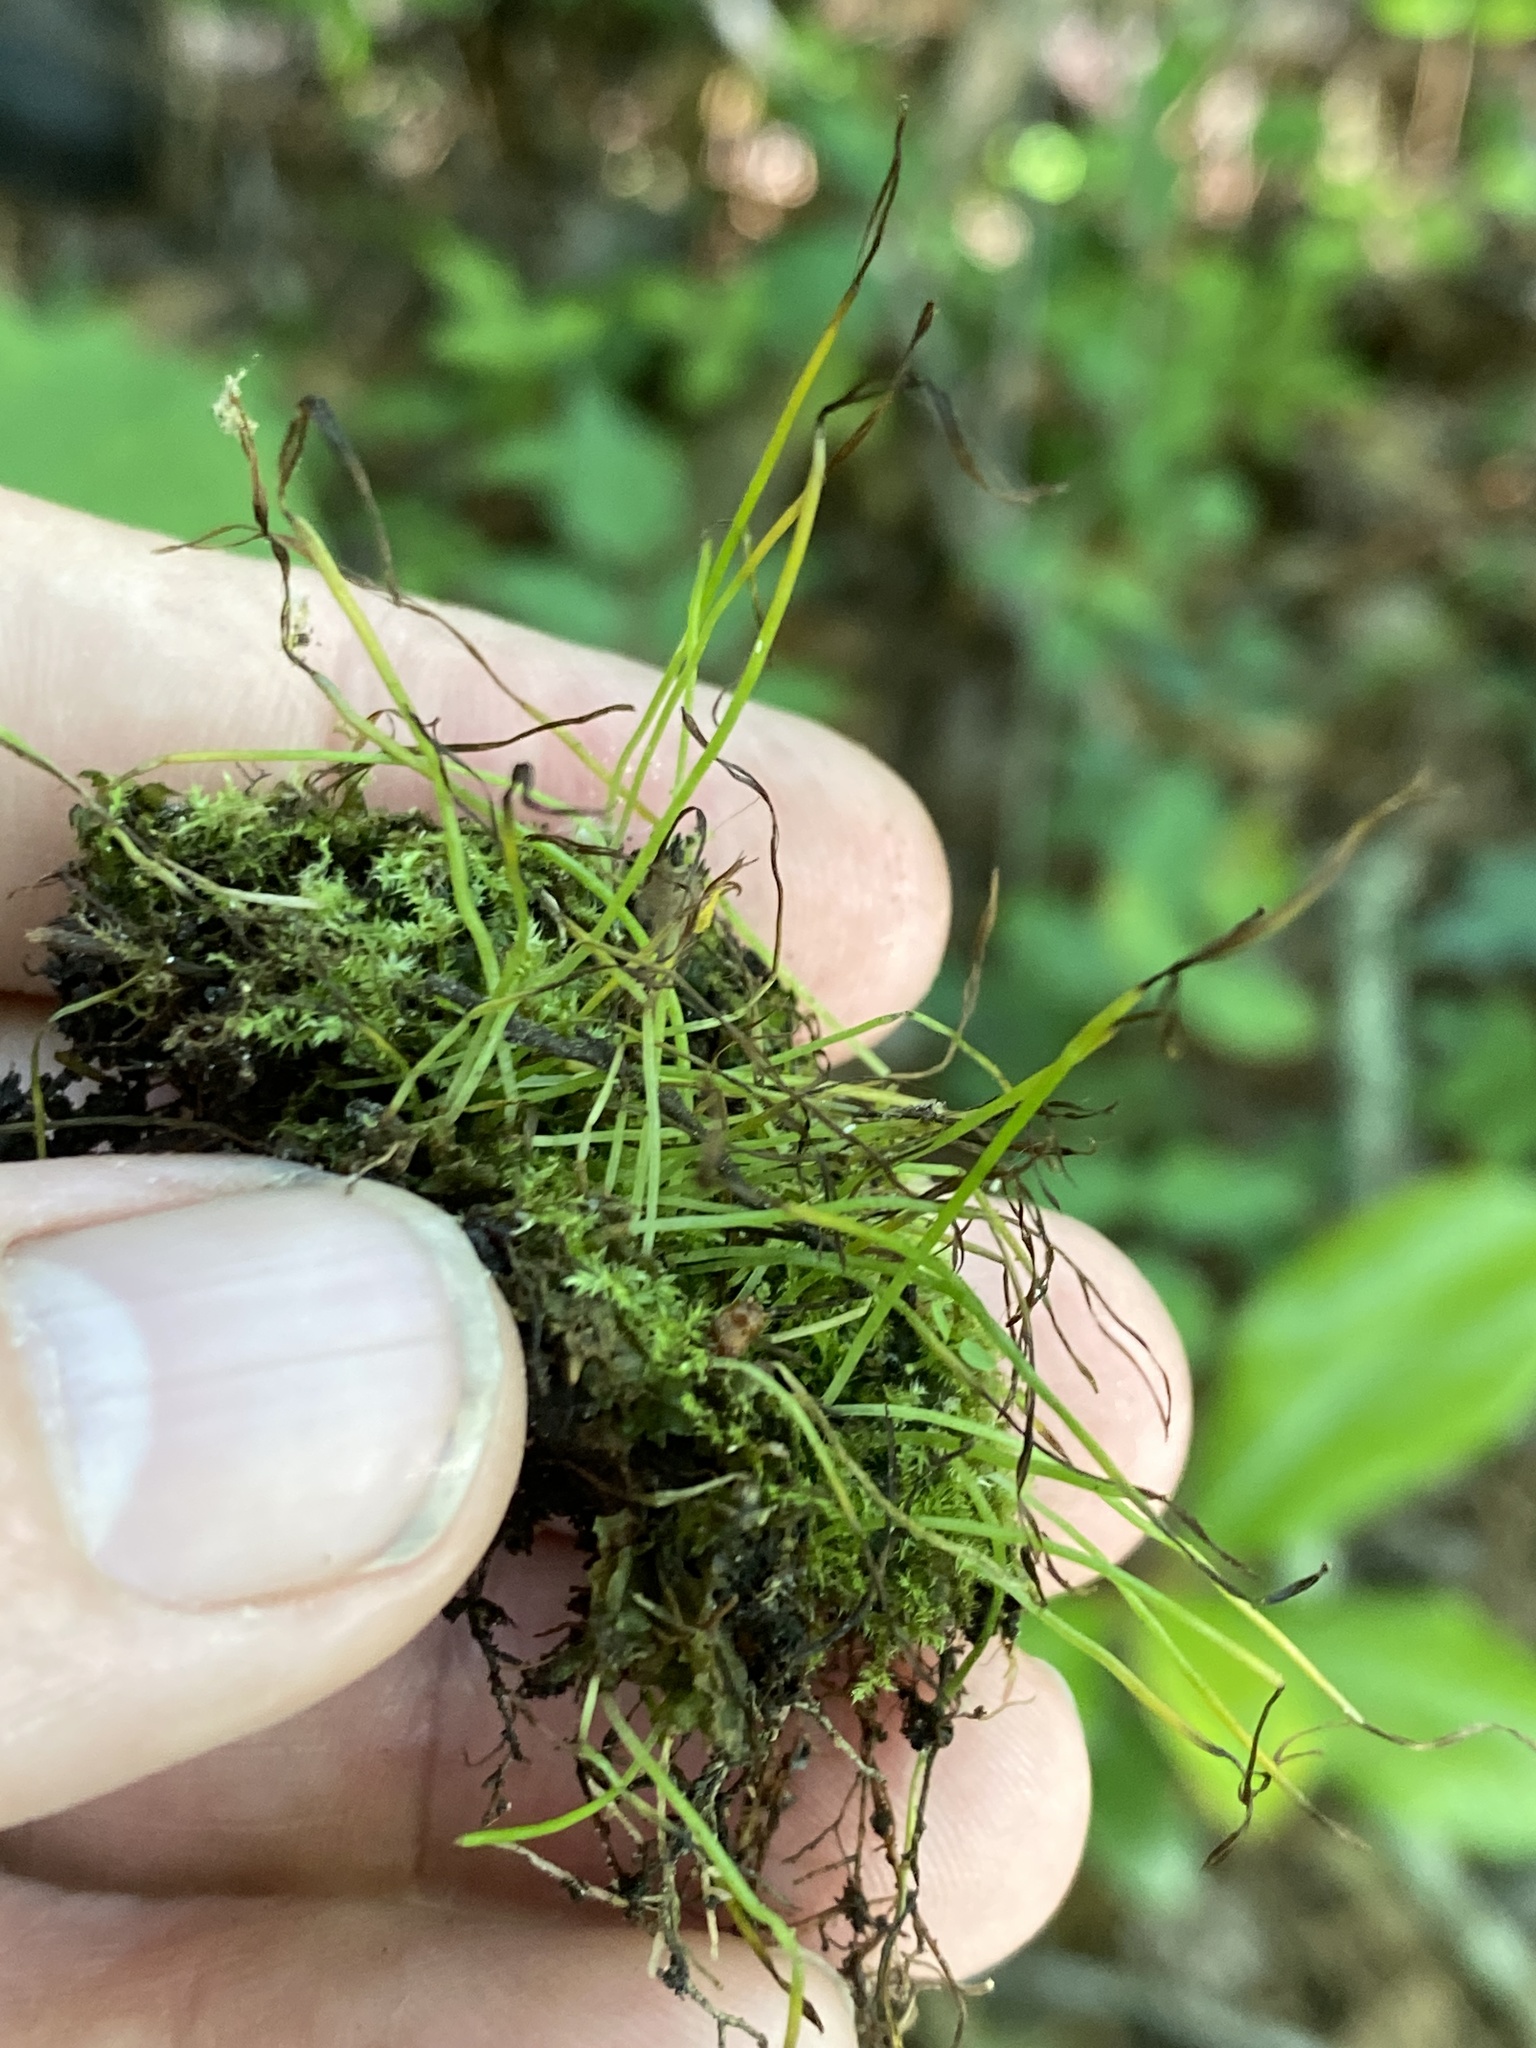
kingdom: Plantae
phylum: Tracheophyta
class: Magnoliopsida
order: Fagales
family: Fagaceae
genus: Quercus
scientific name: Quercus michauxii
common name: Swamp chestnut oak
